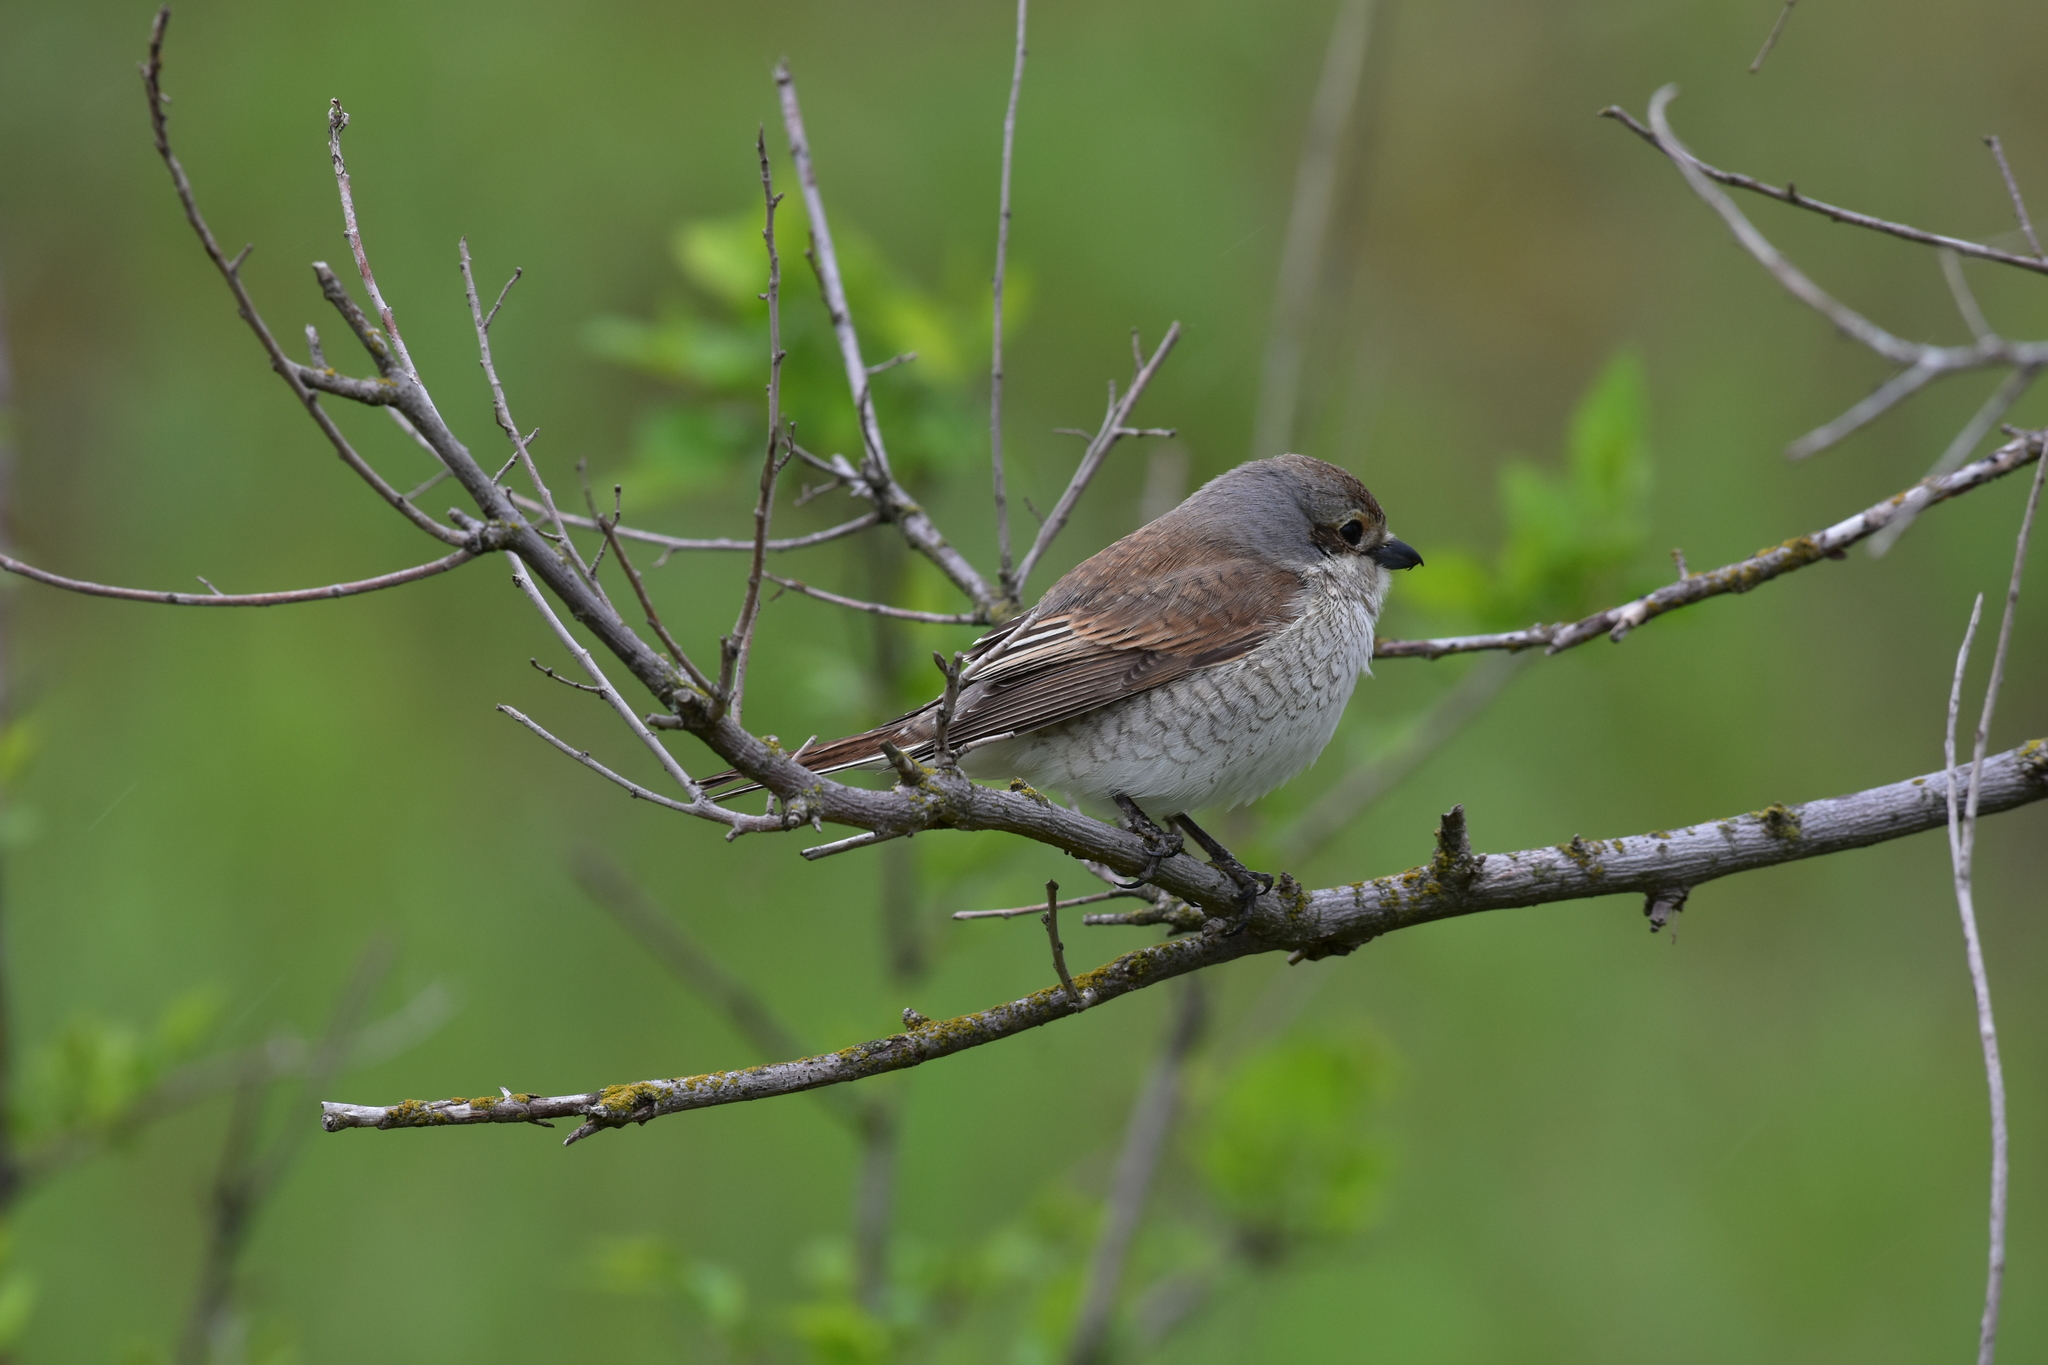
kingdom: Animalia
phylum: Chordata
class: Aves
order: Passeriformes
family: Laniidae
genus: Lanius
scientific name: Lanius collurio
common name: Red-backed shrike
